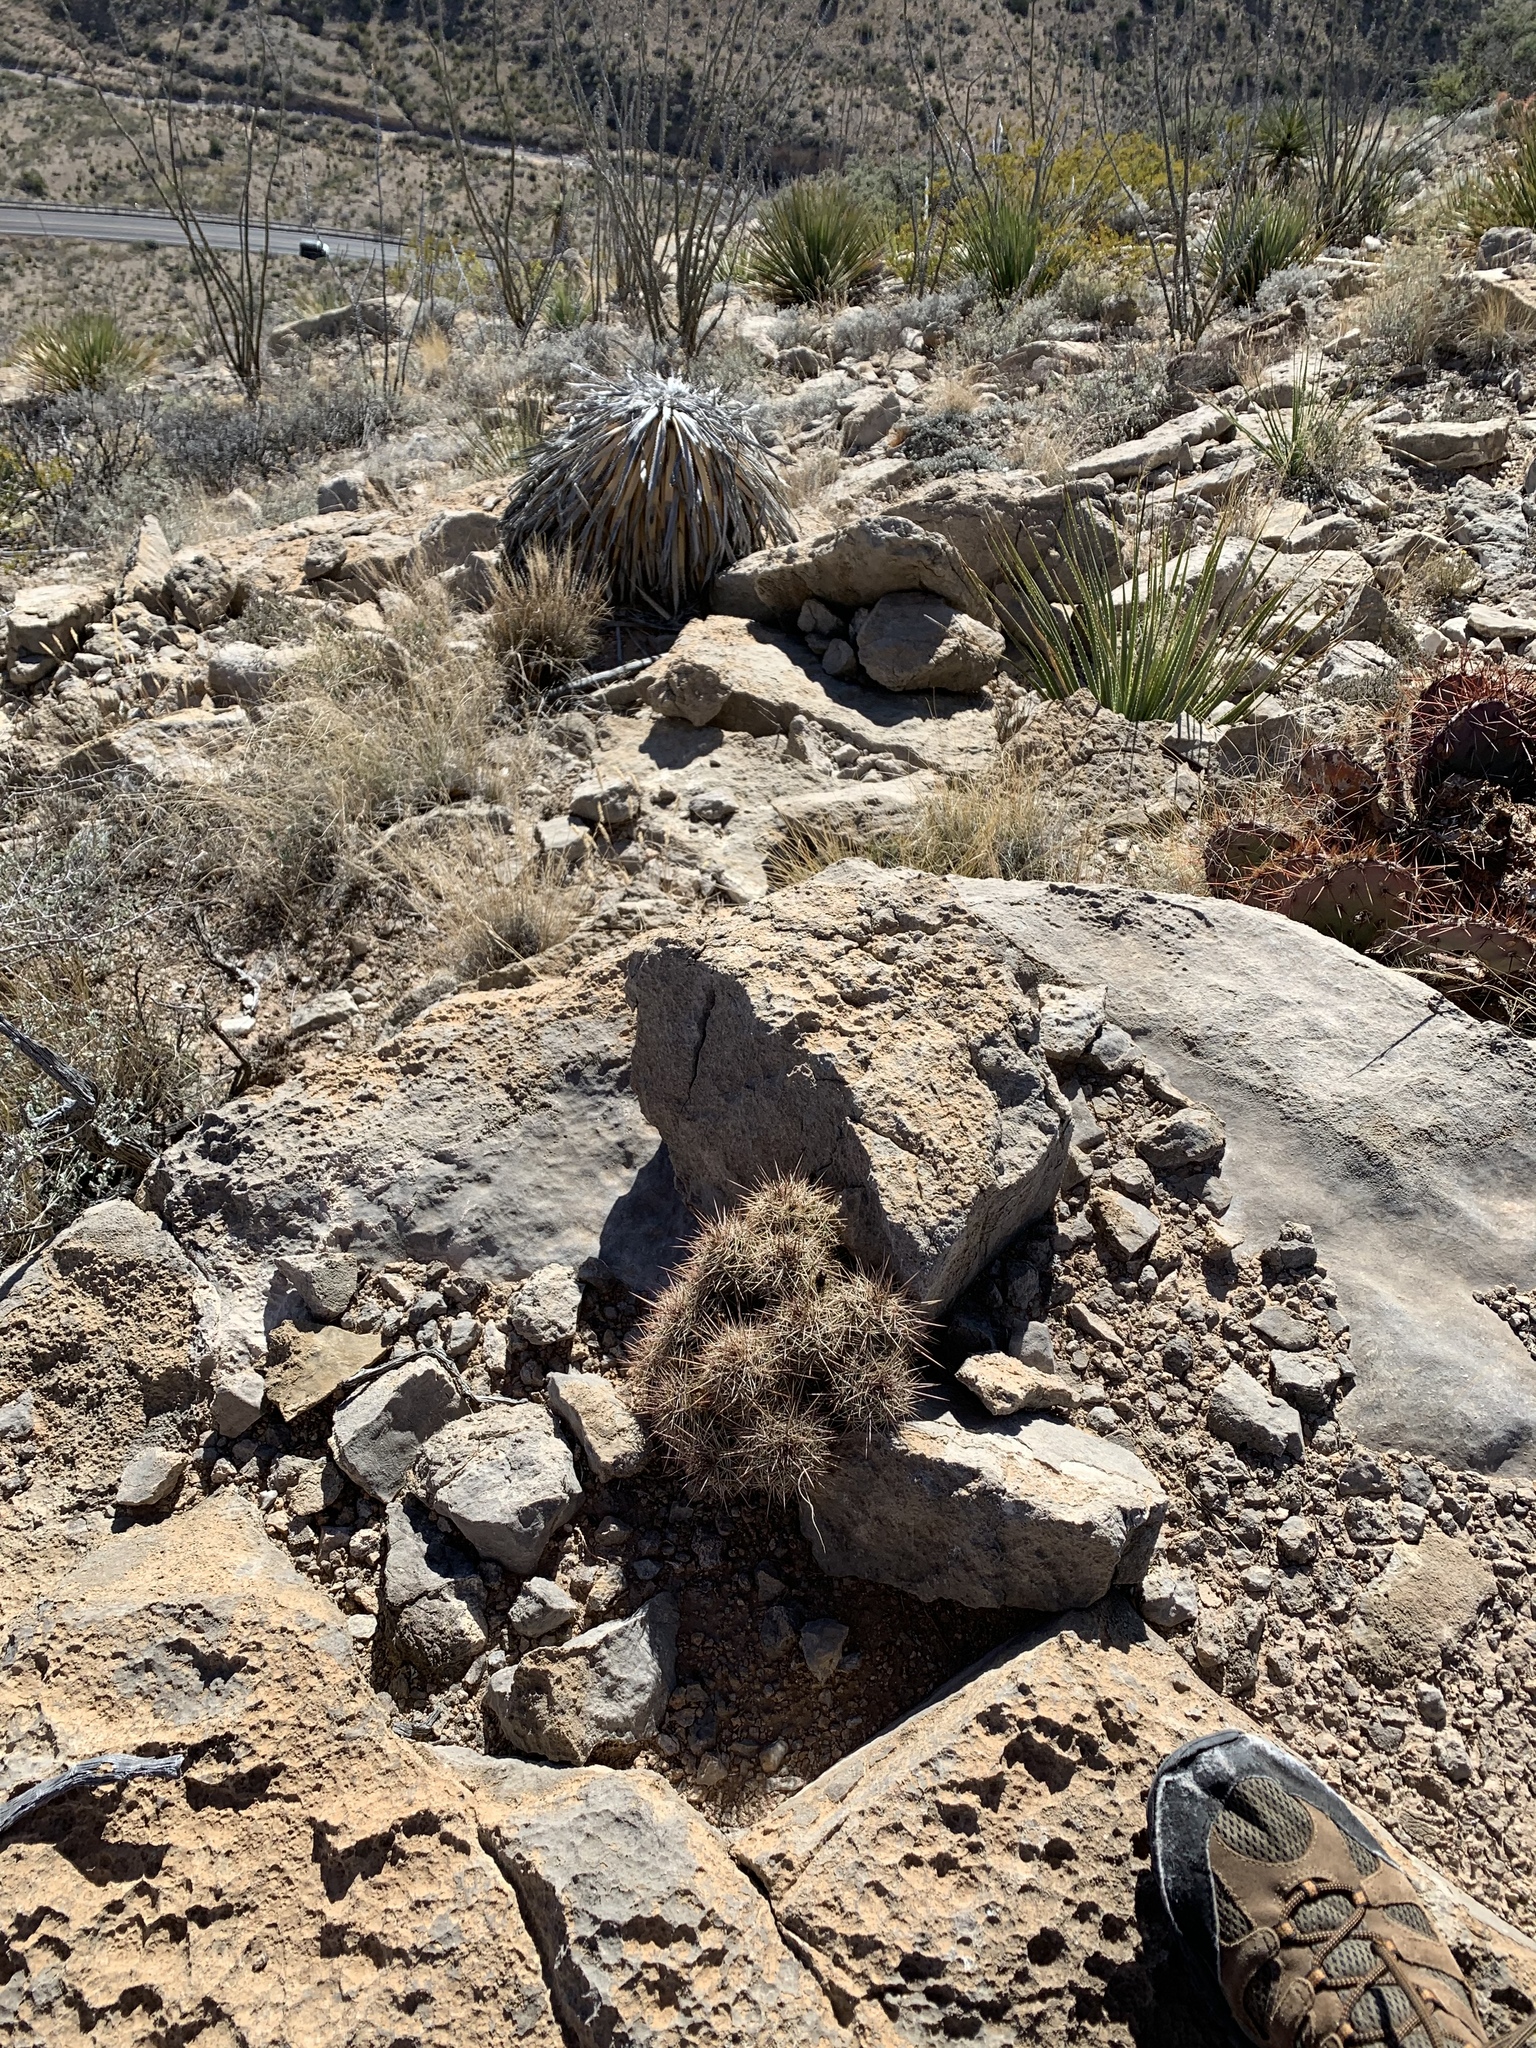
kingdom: Plantae
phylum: Tracheophyta
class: Magnoliopsida
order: Caryophyllales
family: Cactaceae
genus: Echinocereus
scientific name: Echinocereus coccineus
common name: Scarlet hedgehog cactus
